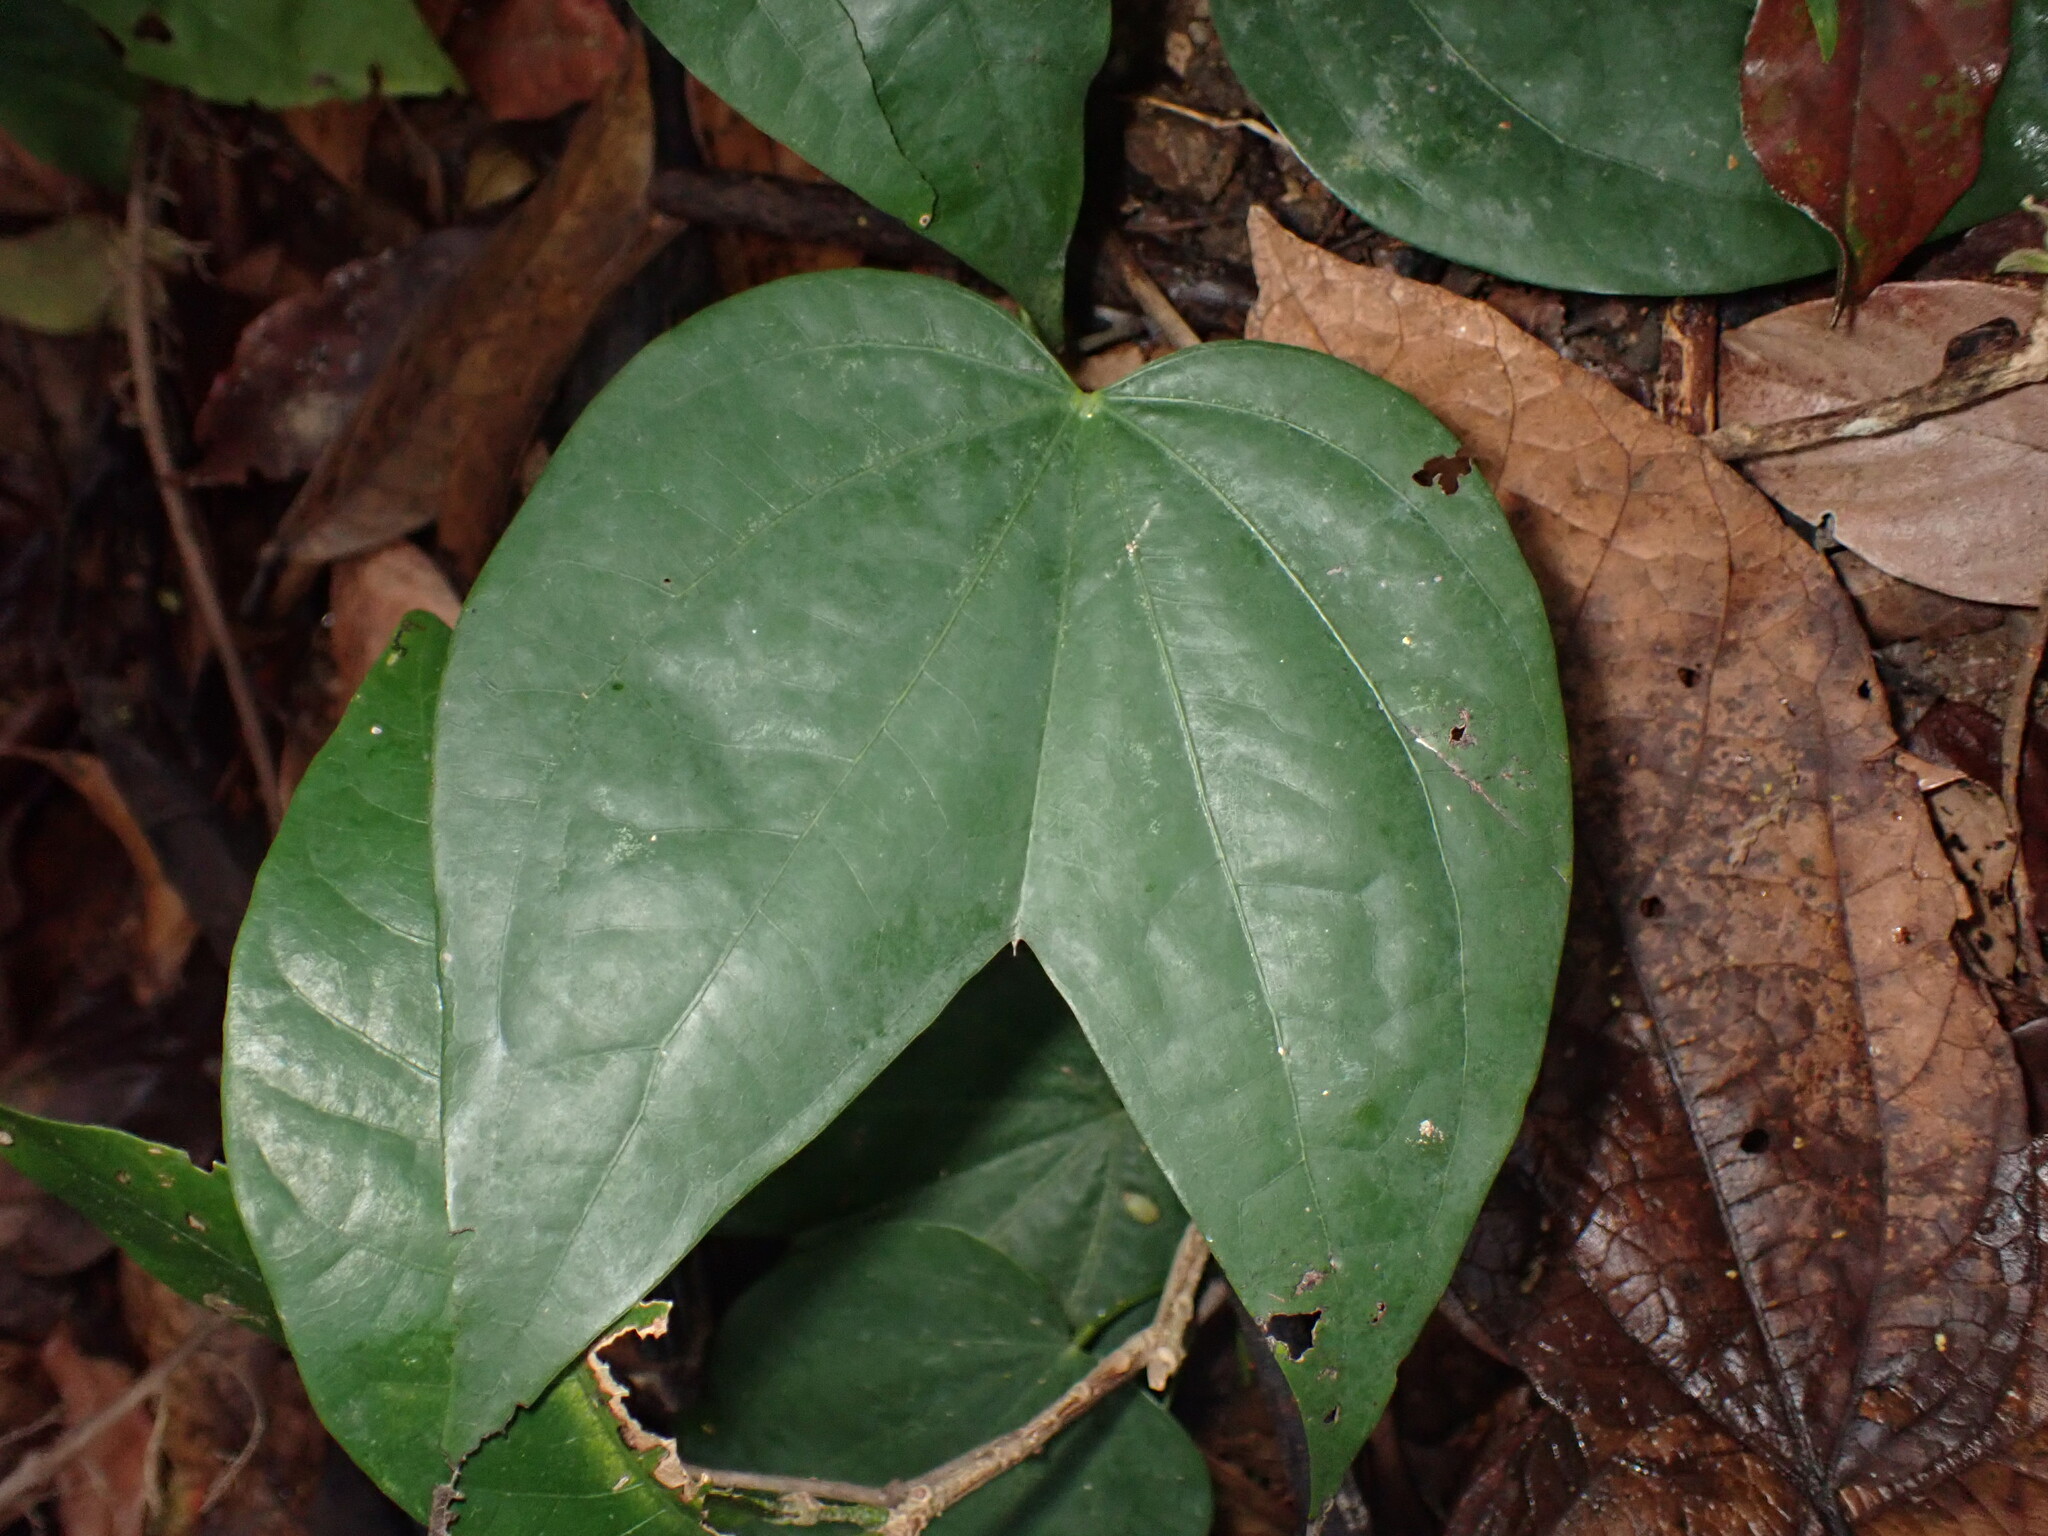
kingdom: Plantae
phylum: Tracheophyta
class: Magnoliopsida
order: Fabales
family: Fabaceae
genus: Phanera
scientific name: Phanera championii
